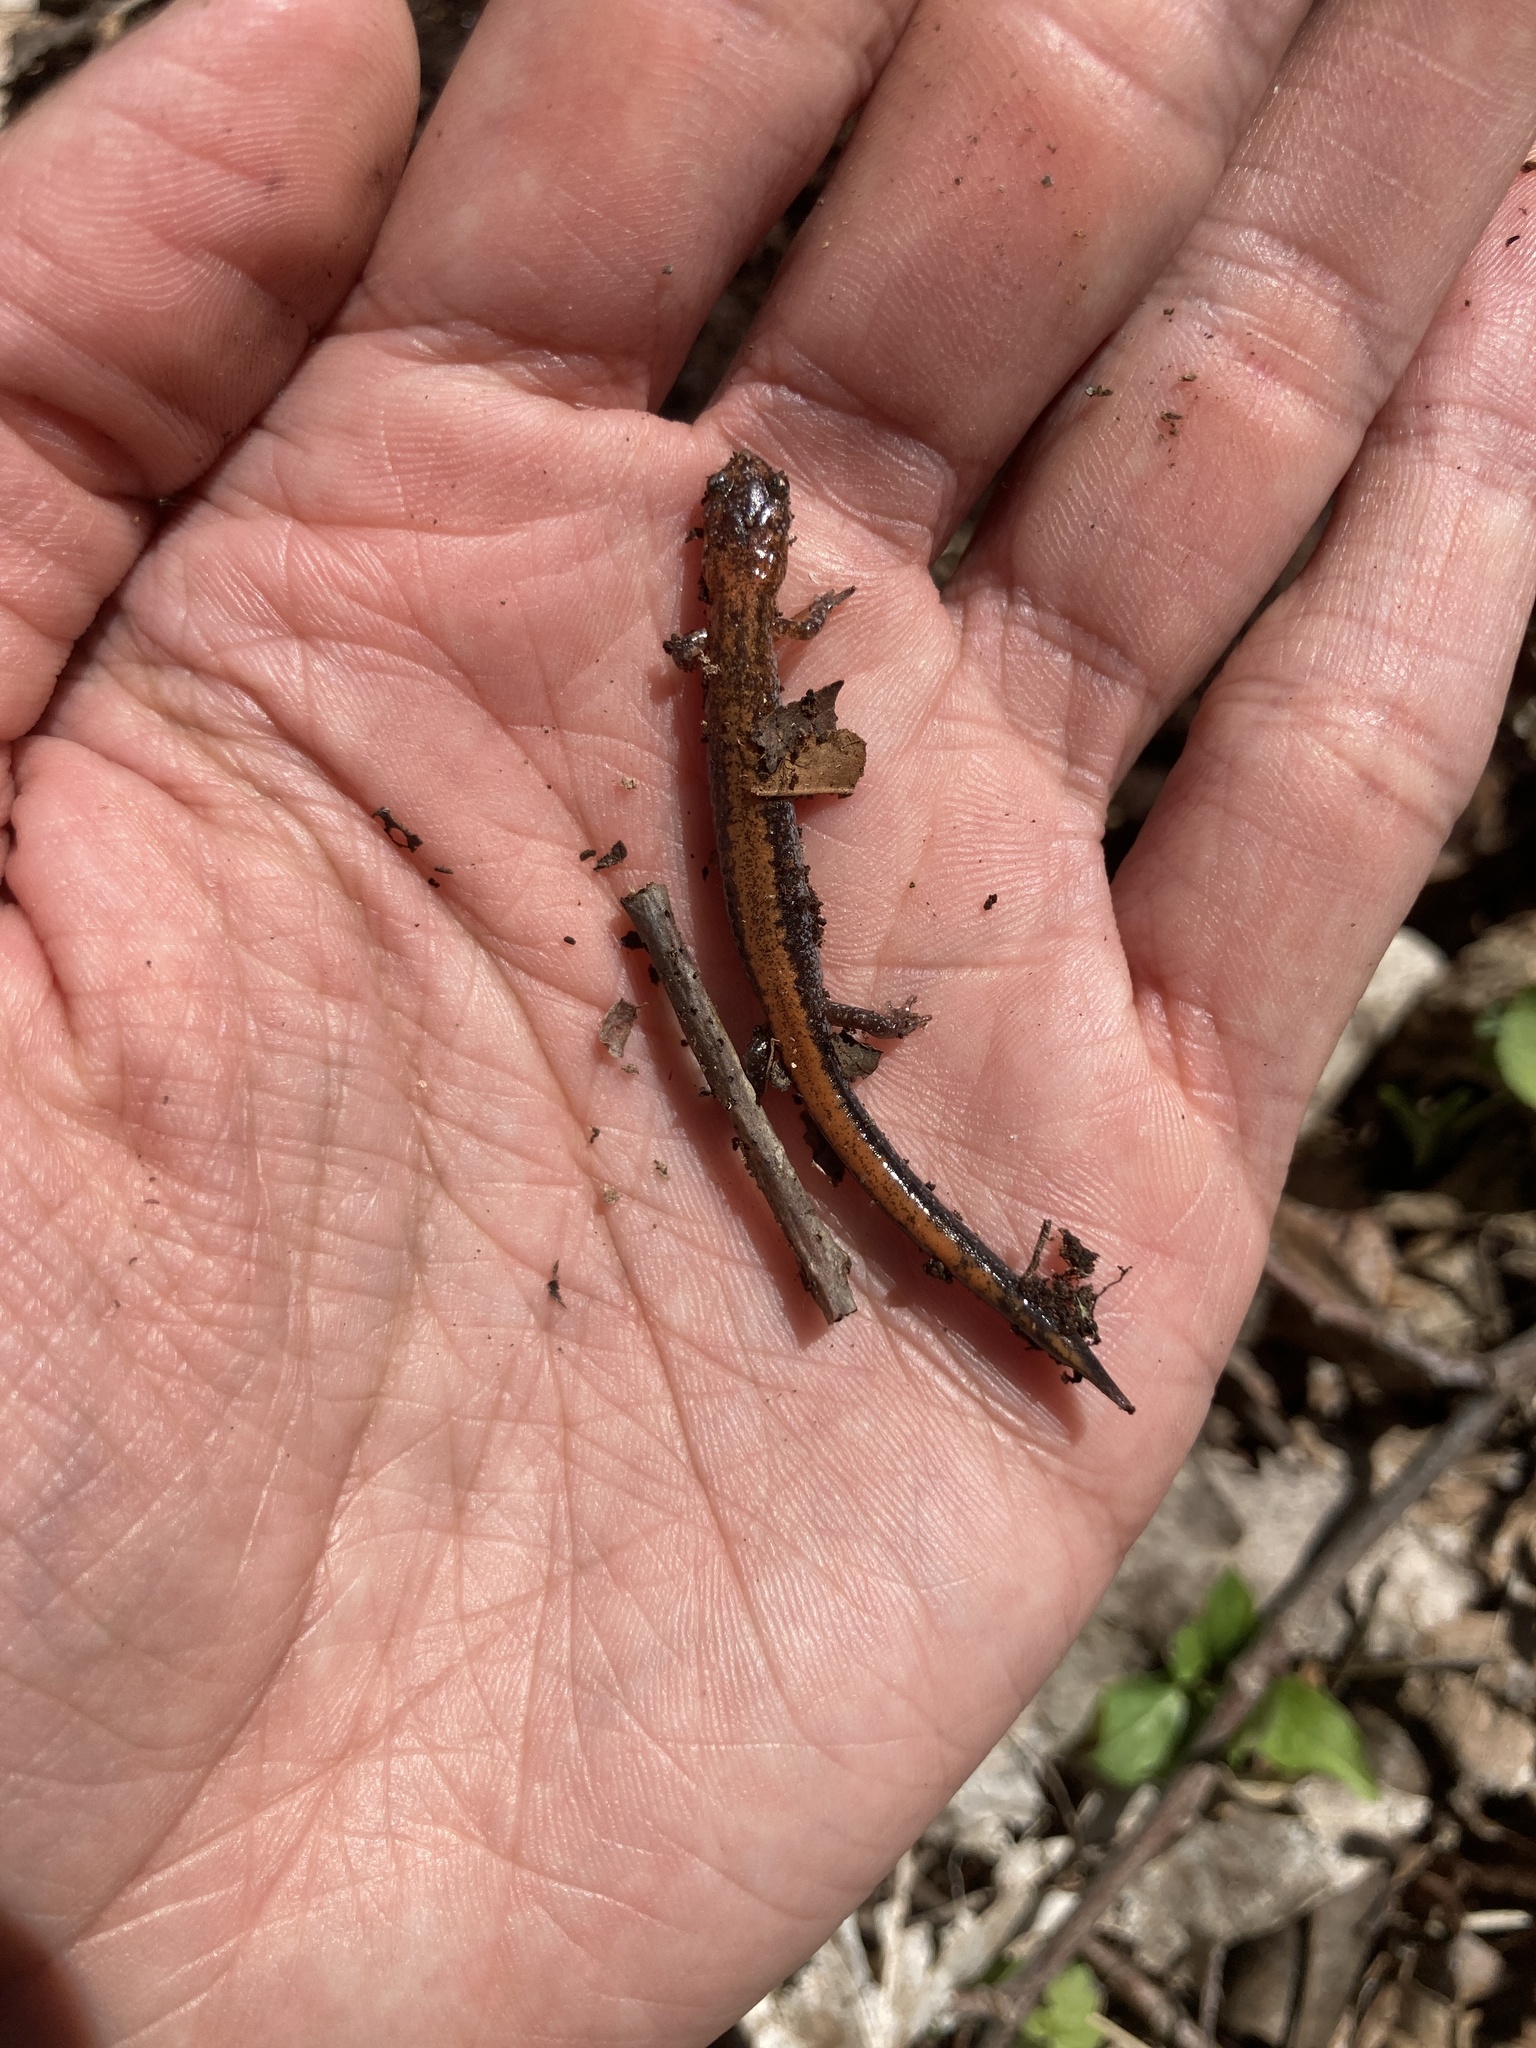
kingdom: Animalia
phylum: Chordata
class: Amphibia
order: Caudata
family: Plethodontidae
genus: Plethodon
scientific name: Plethodon cinereus
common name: Redback salamander
